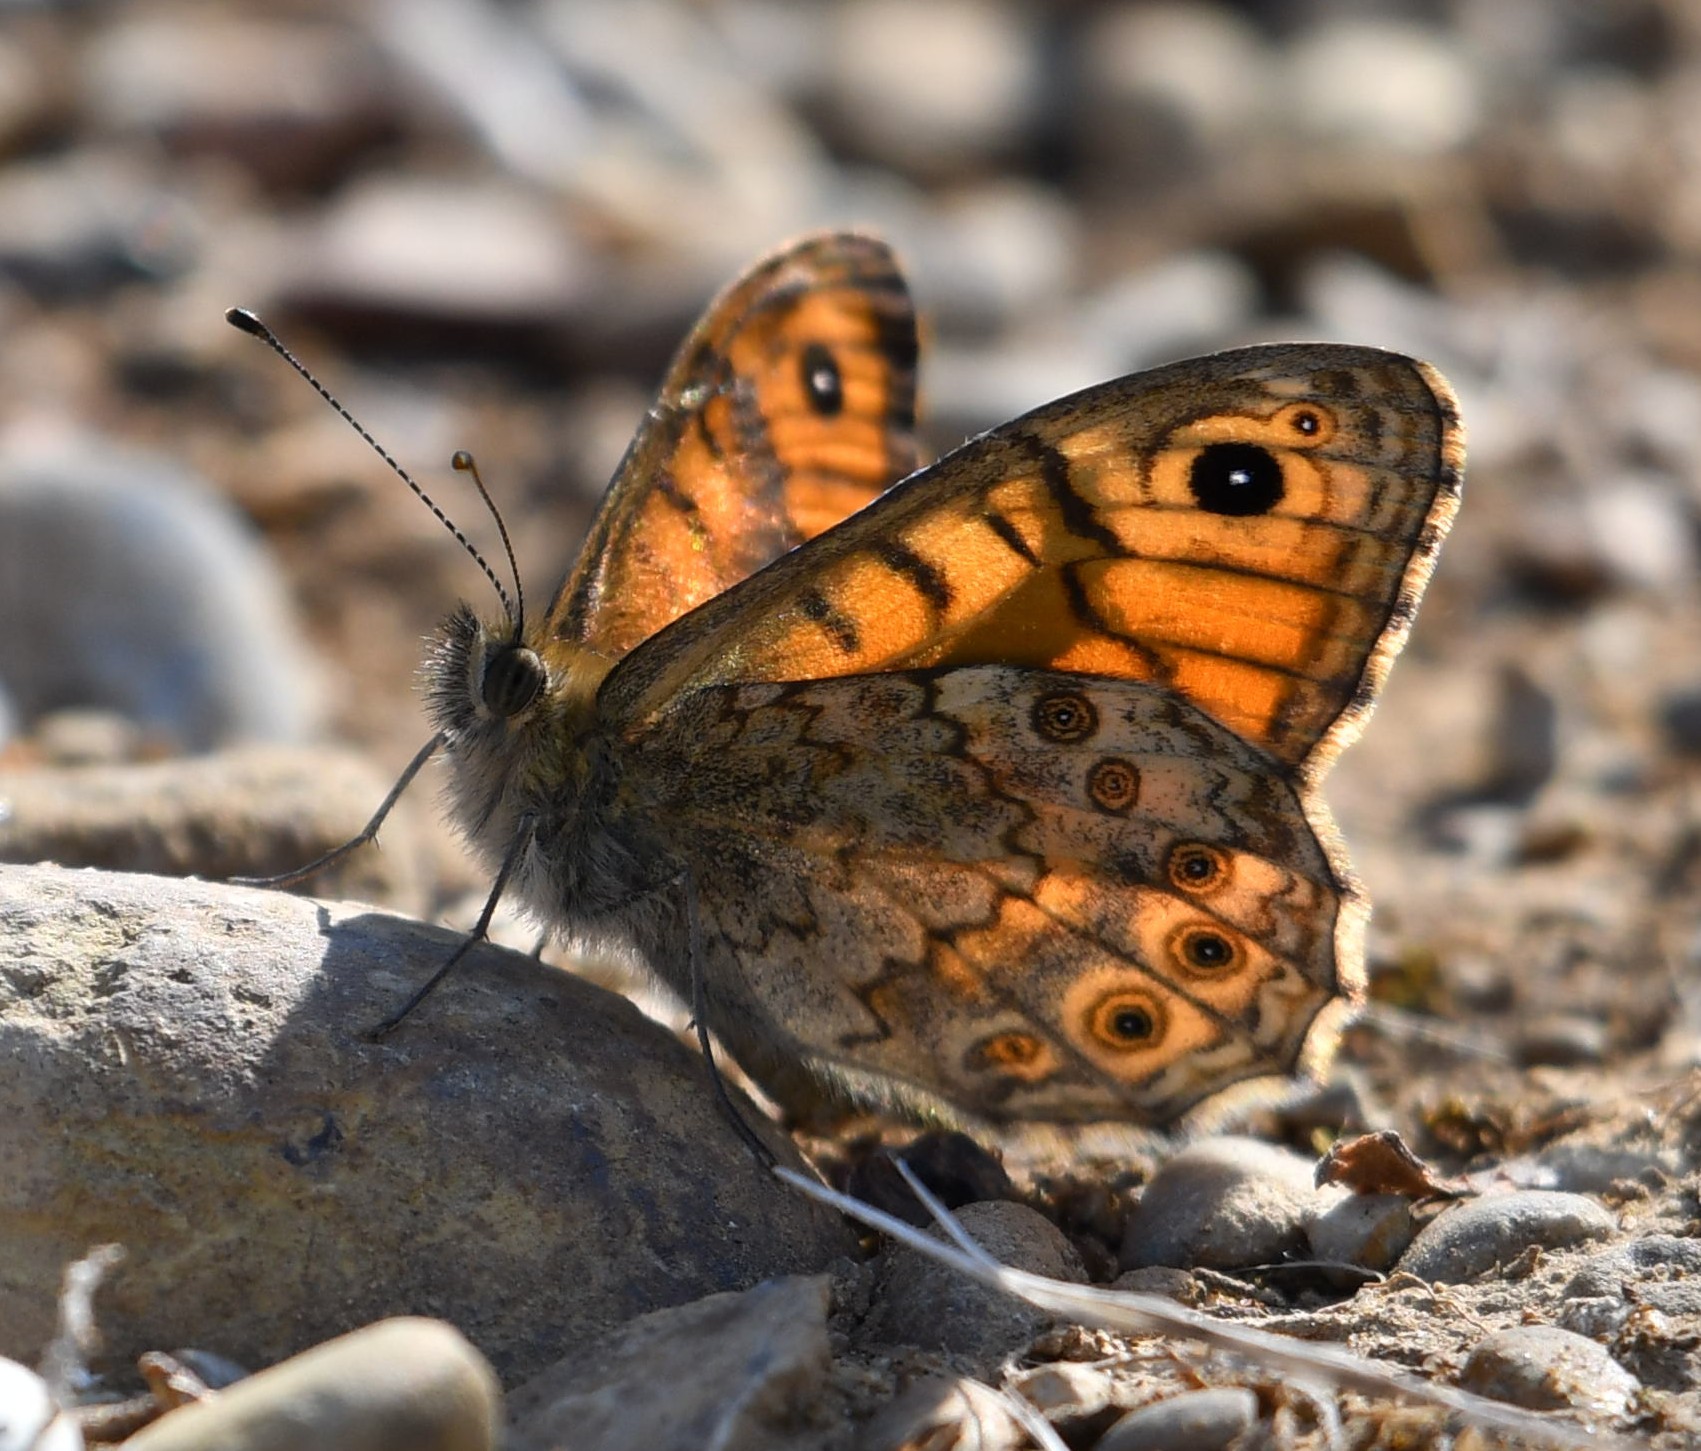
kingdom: Animalia
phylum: Arthropoda
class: Insecta
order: Lepidoptera
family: Nymphalidae
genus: Pararge
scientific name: Pararge Lasiommata megera
